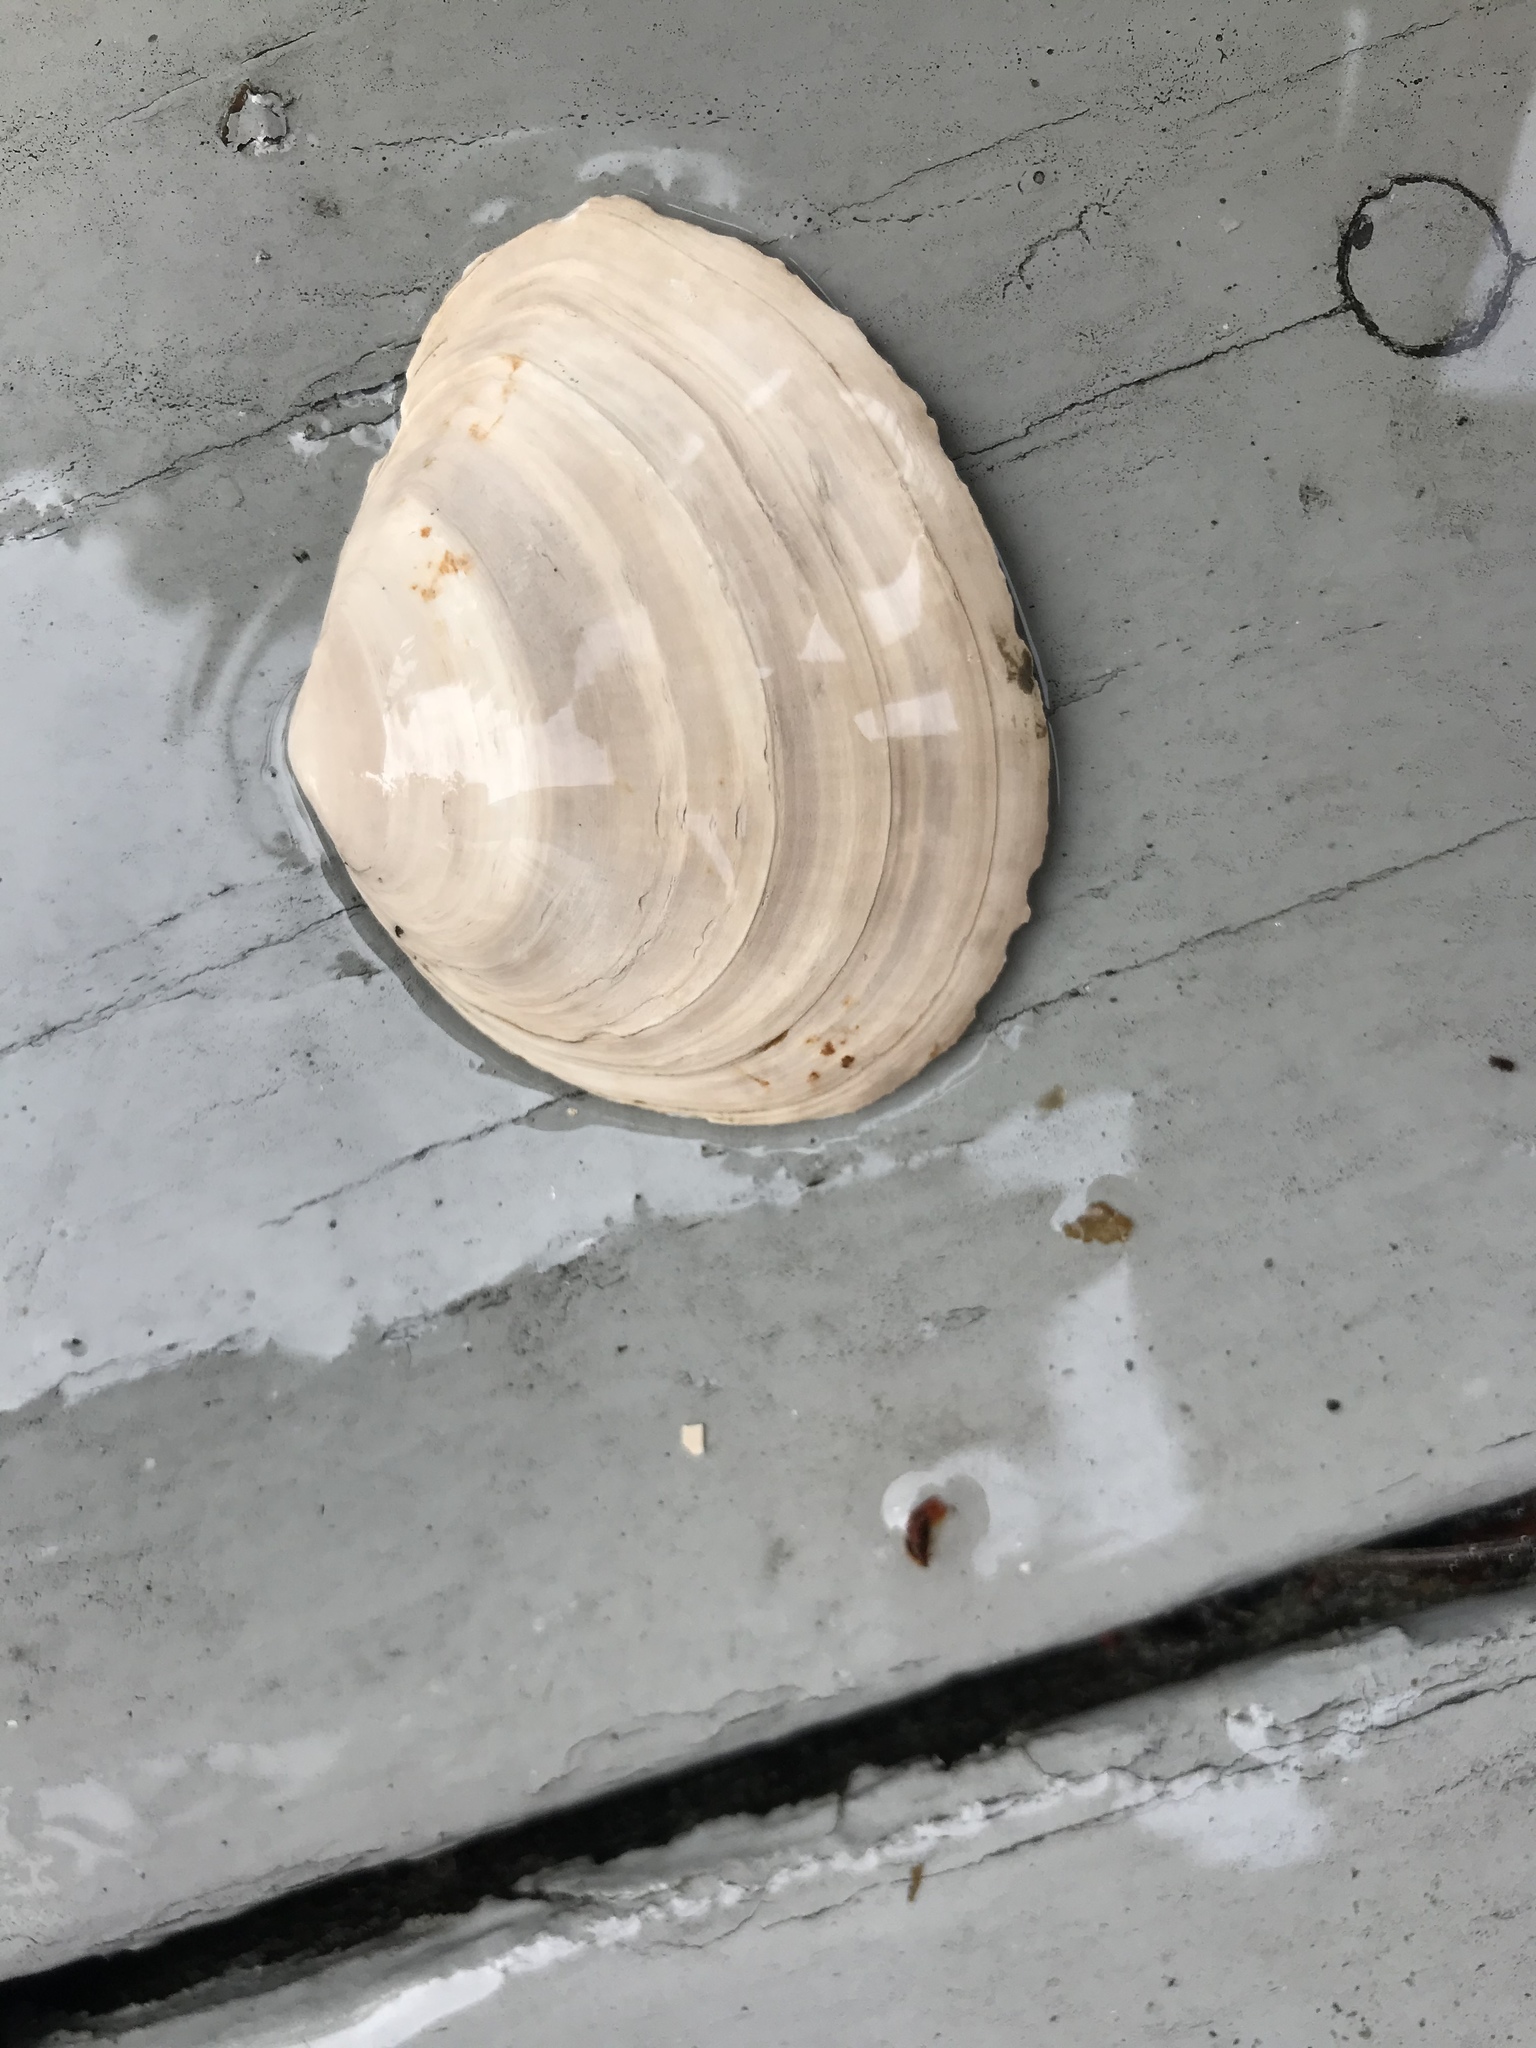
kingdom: Animalia
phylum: Mollusca
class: Bivalvia
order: Cardiida
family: Tellinidae
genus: Macoma
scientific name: Macoma nasuta
